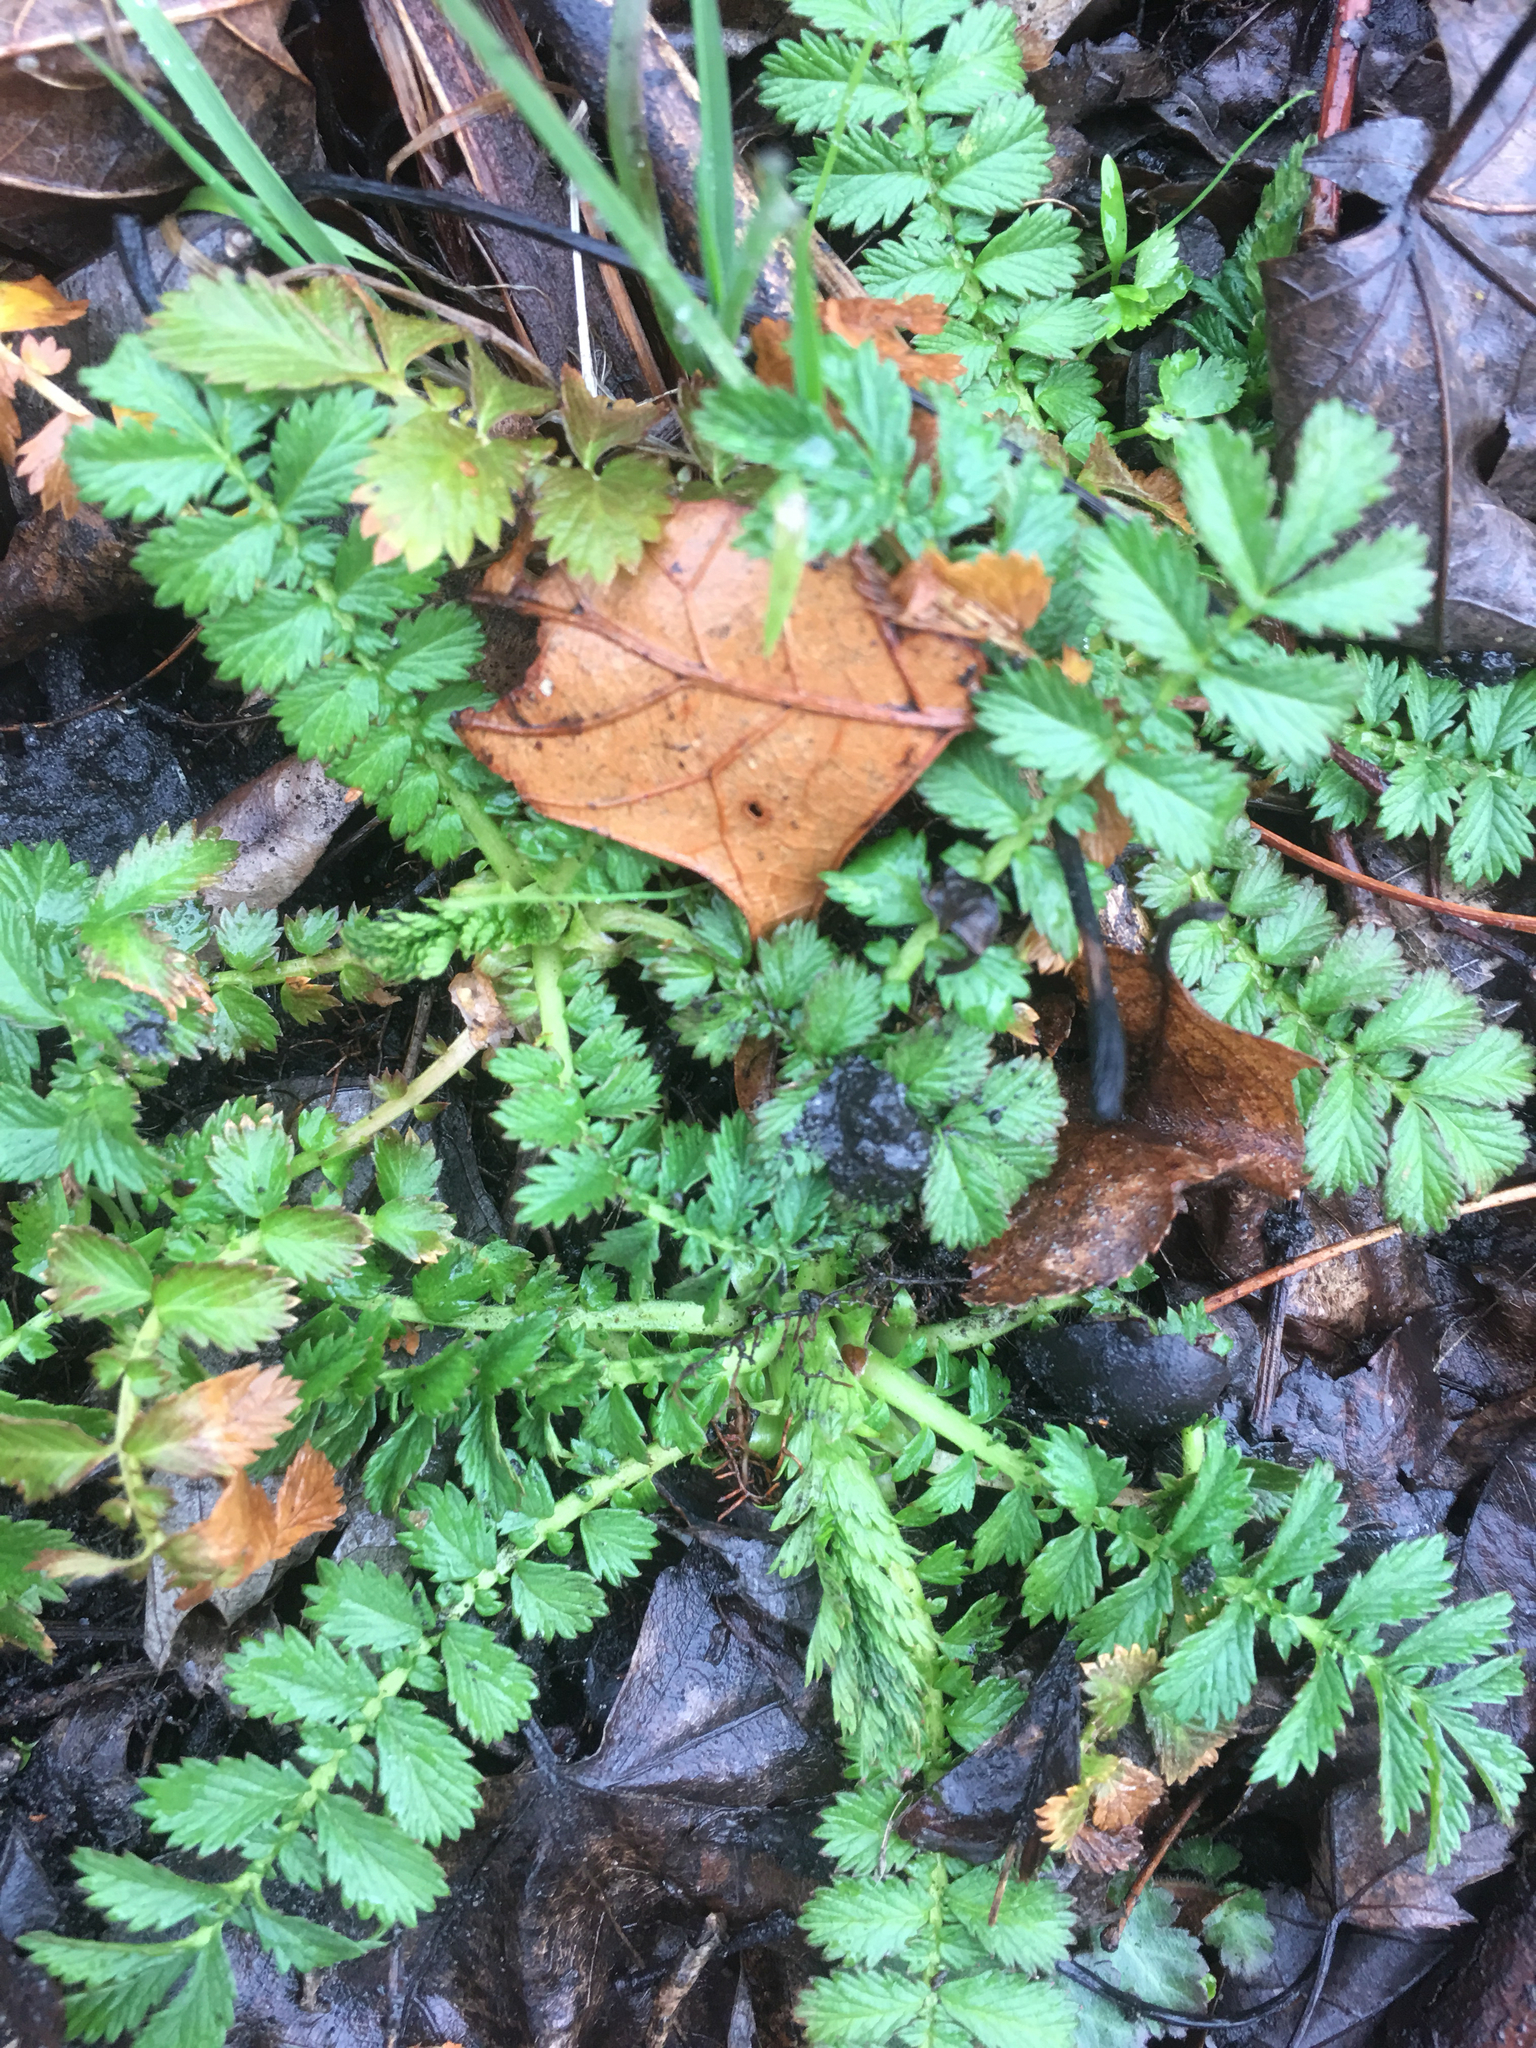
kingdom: Plantae
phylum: Tracheophyta
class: Magnoliopsida
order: Rosales
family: Rosaceae
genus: Agrimonia
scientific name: Agrimonia parviflora
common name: Harvest-lice
